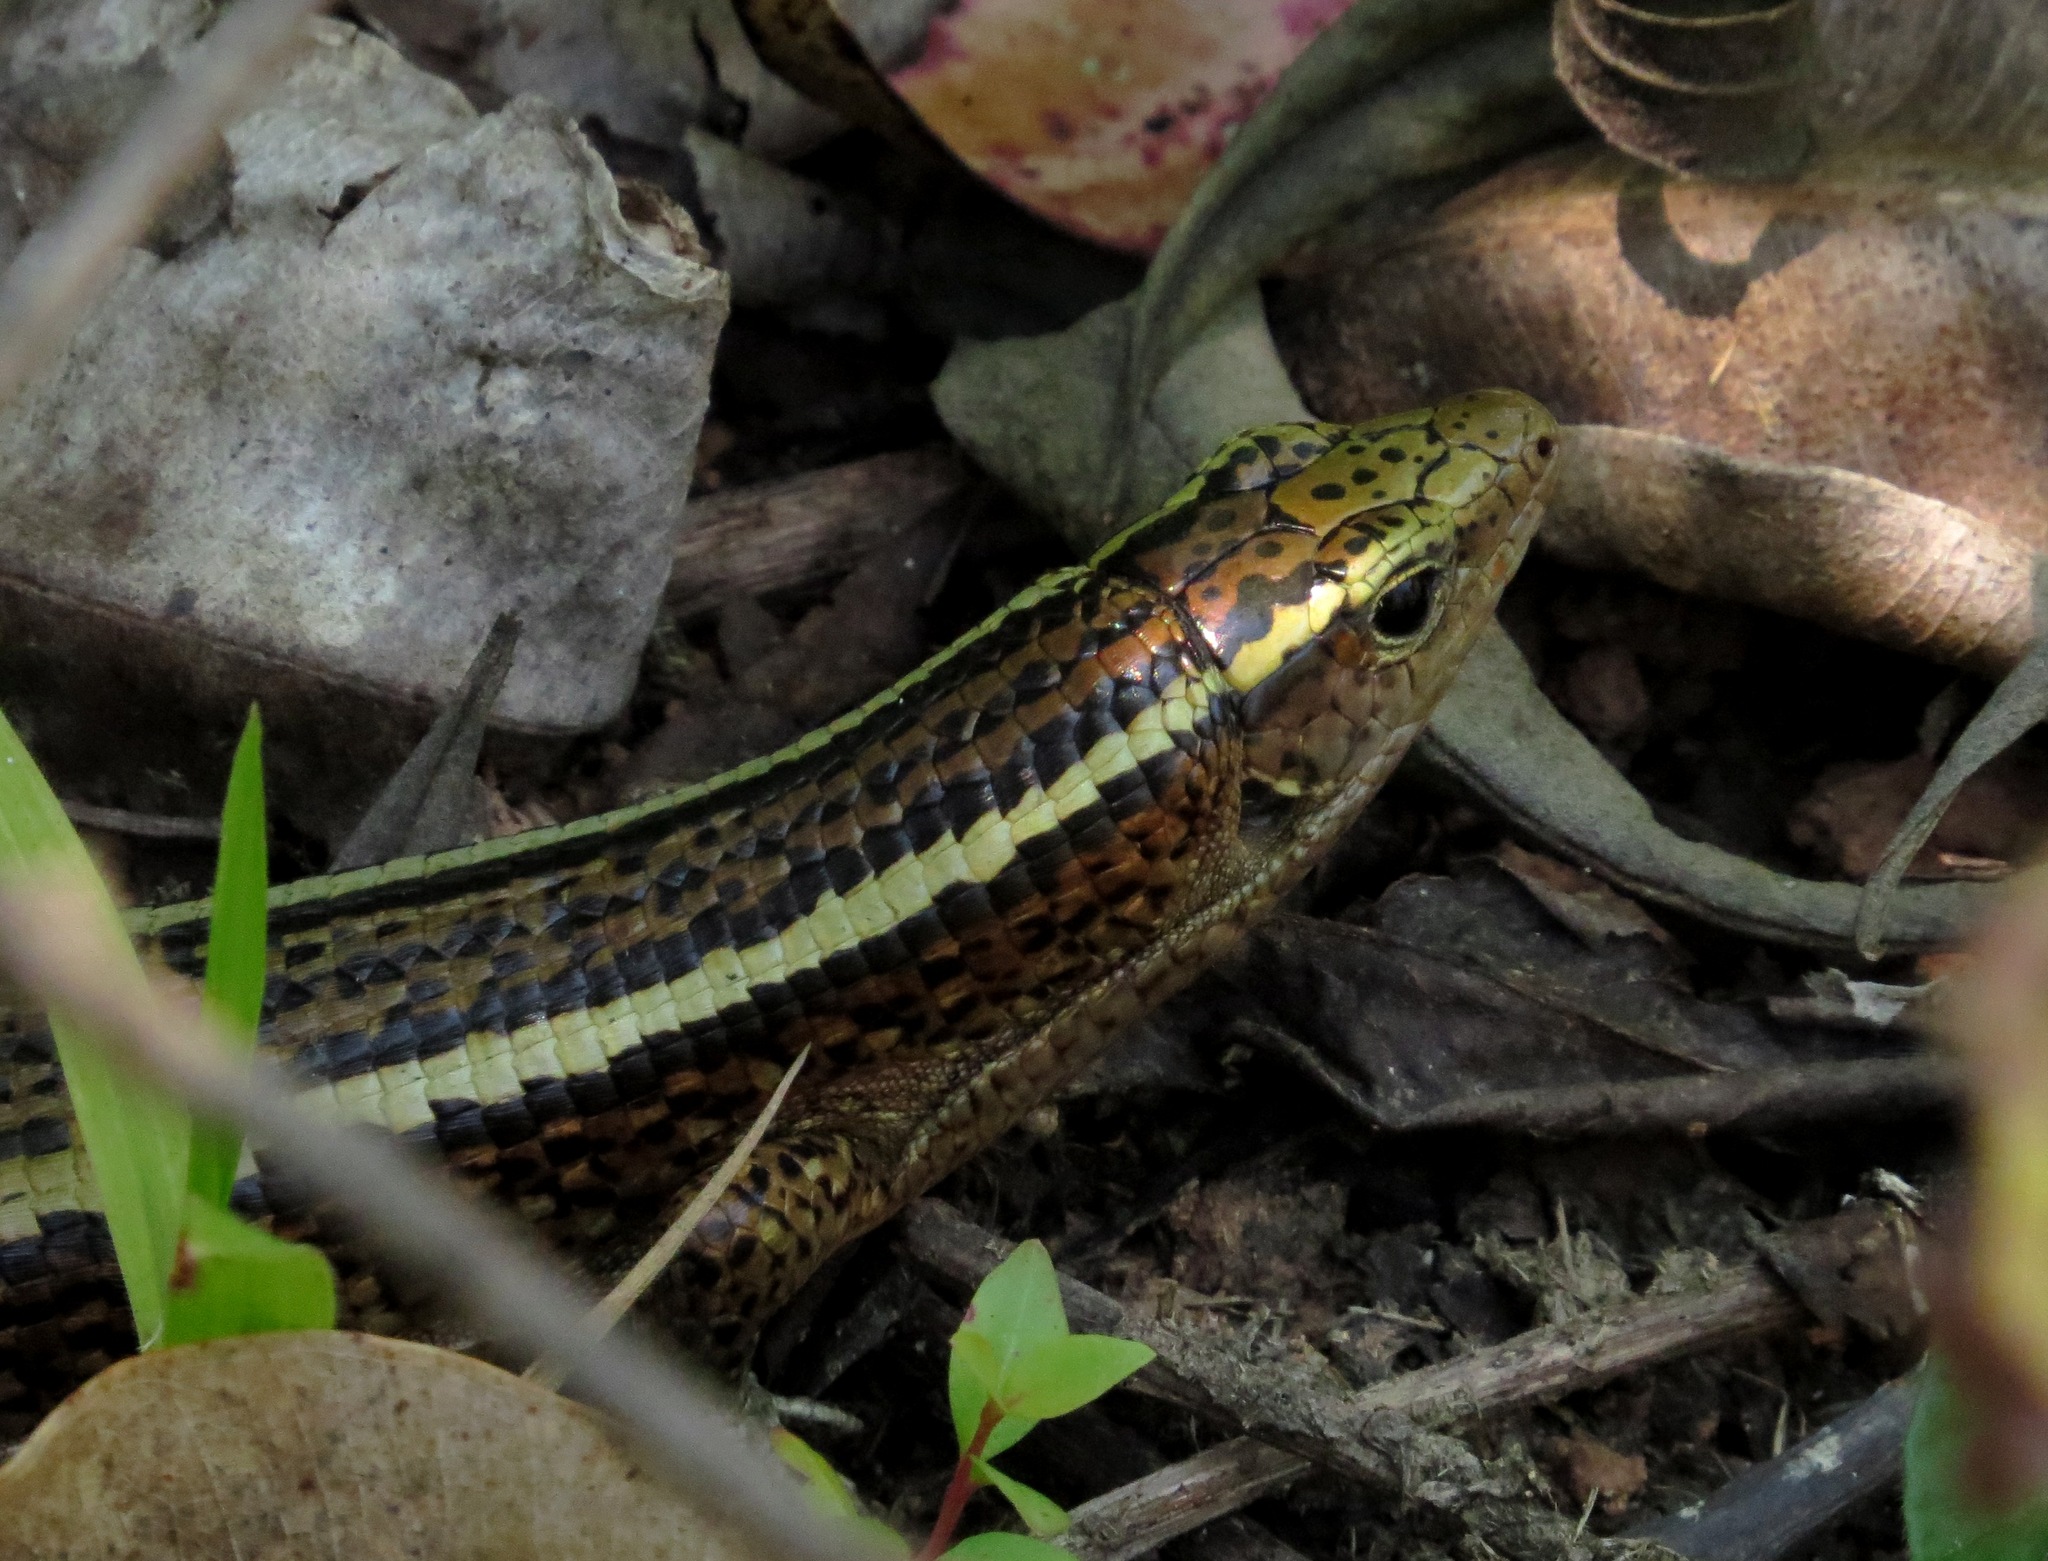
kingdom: Animalia
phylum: Chordata
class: Squamata
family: Gerrhosauridae
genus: Zonosaurus
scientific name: Zonosaurus madagascariensis
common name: Madagascar girdled lizard
